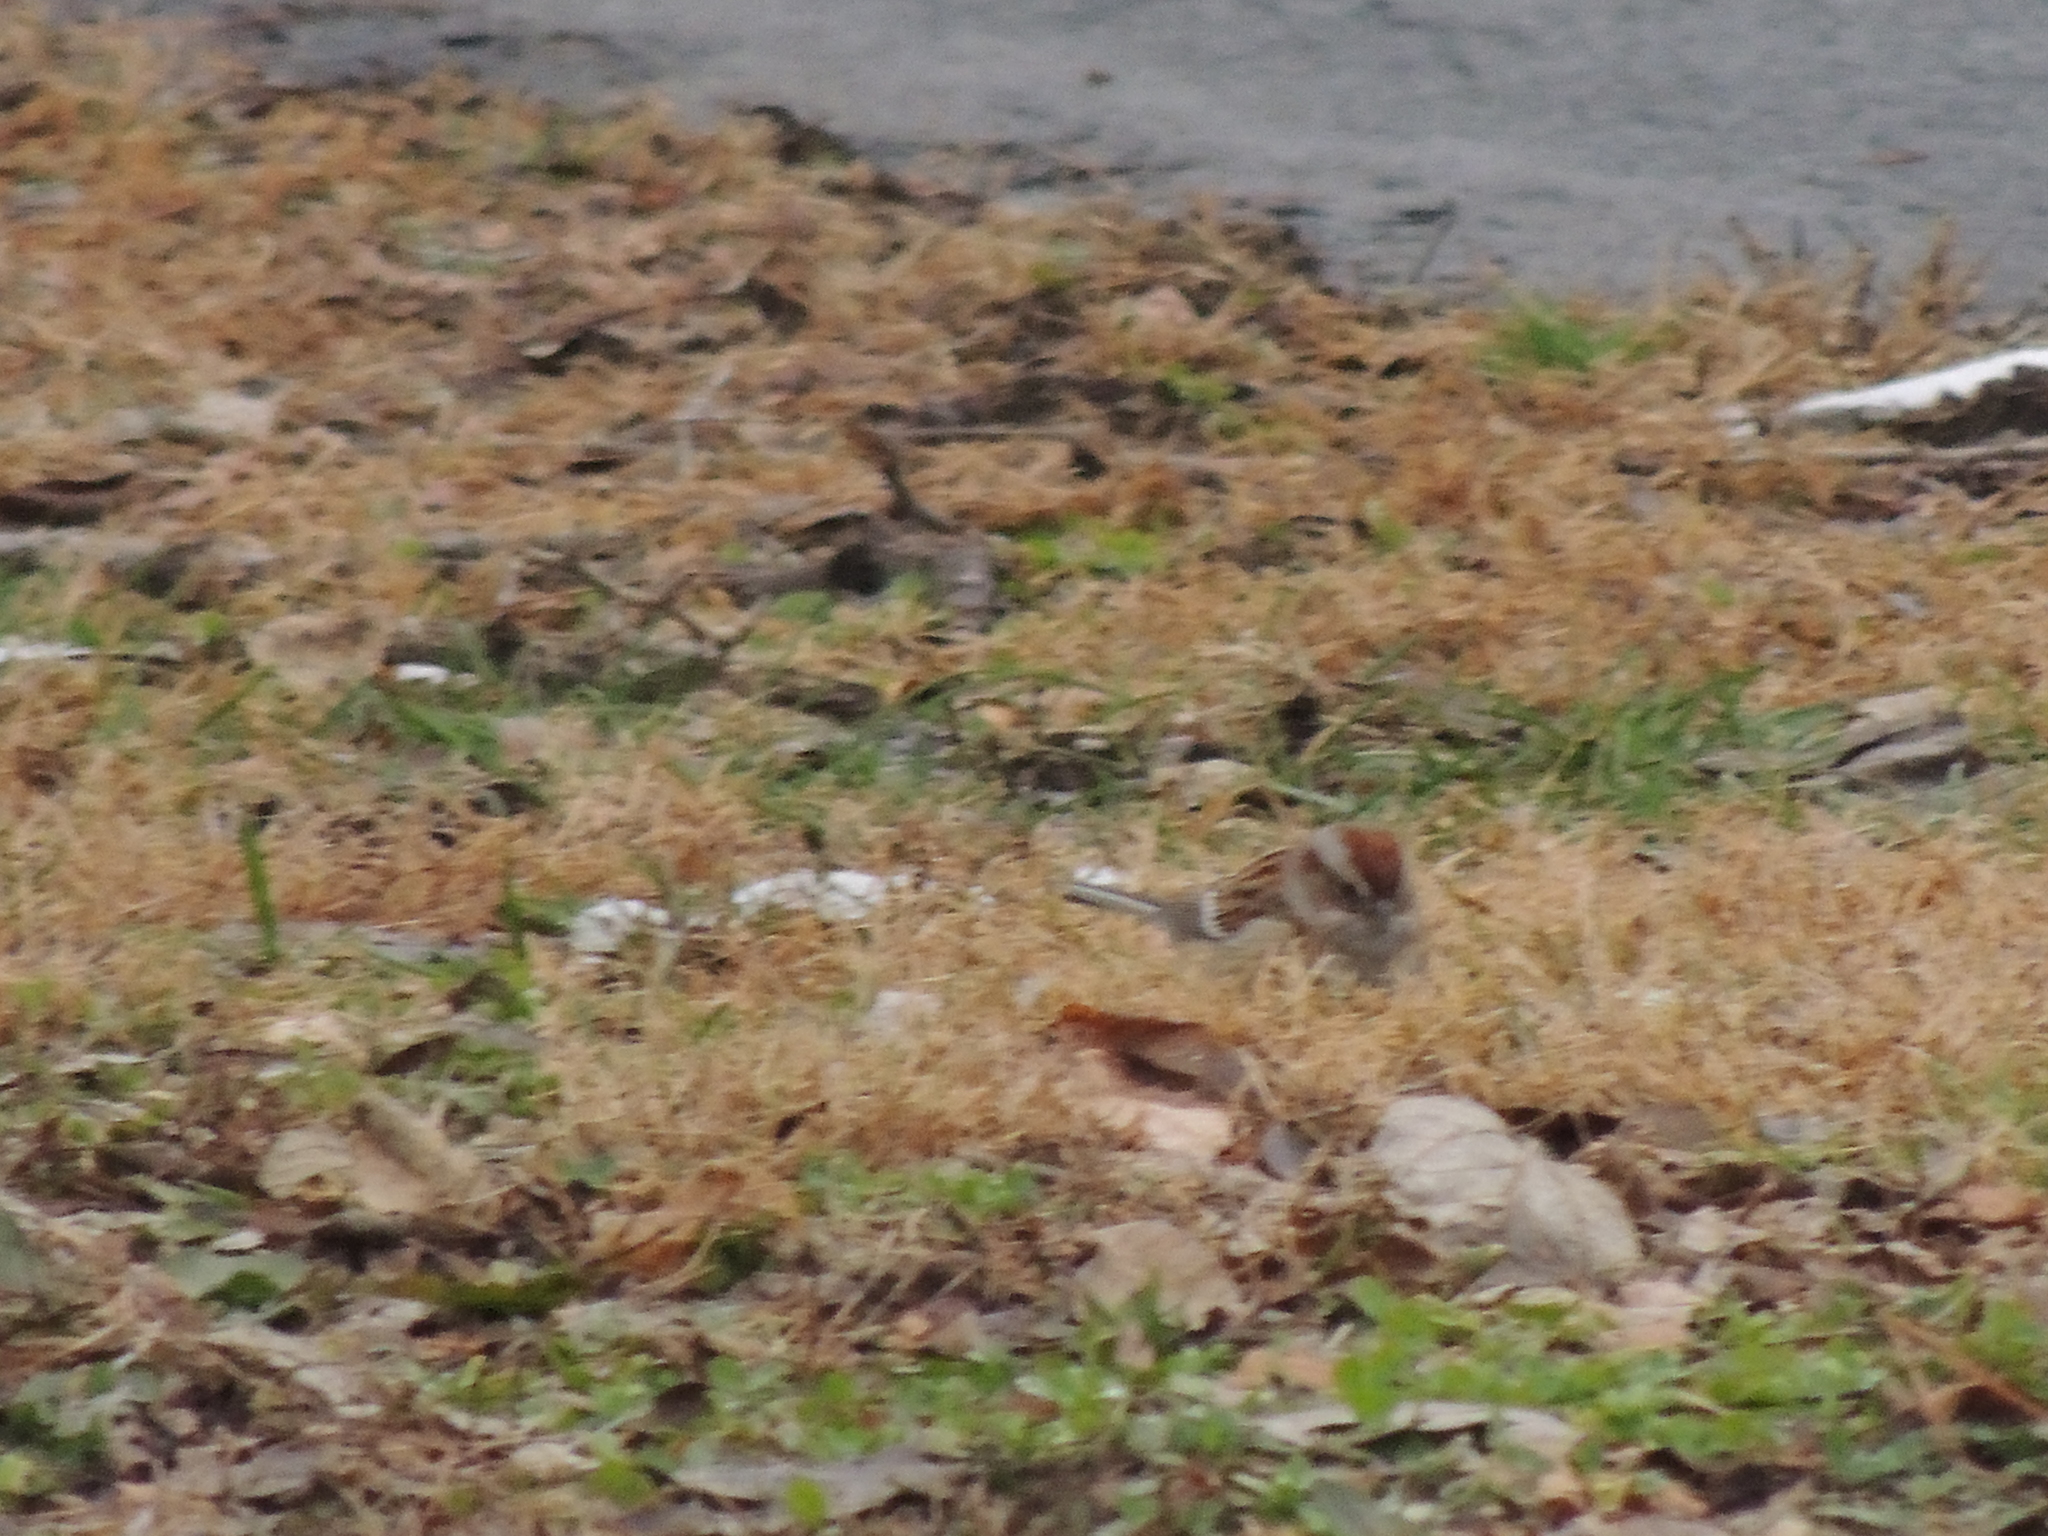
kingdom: Animalia
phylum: Chordata
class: Aves
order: Passeriformes
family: Passerellidae
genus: Spizelloides
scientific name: Spizelloides arborea
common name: American tree sparrow
